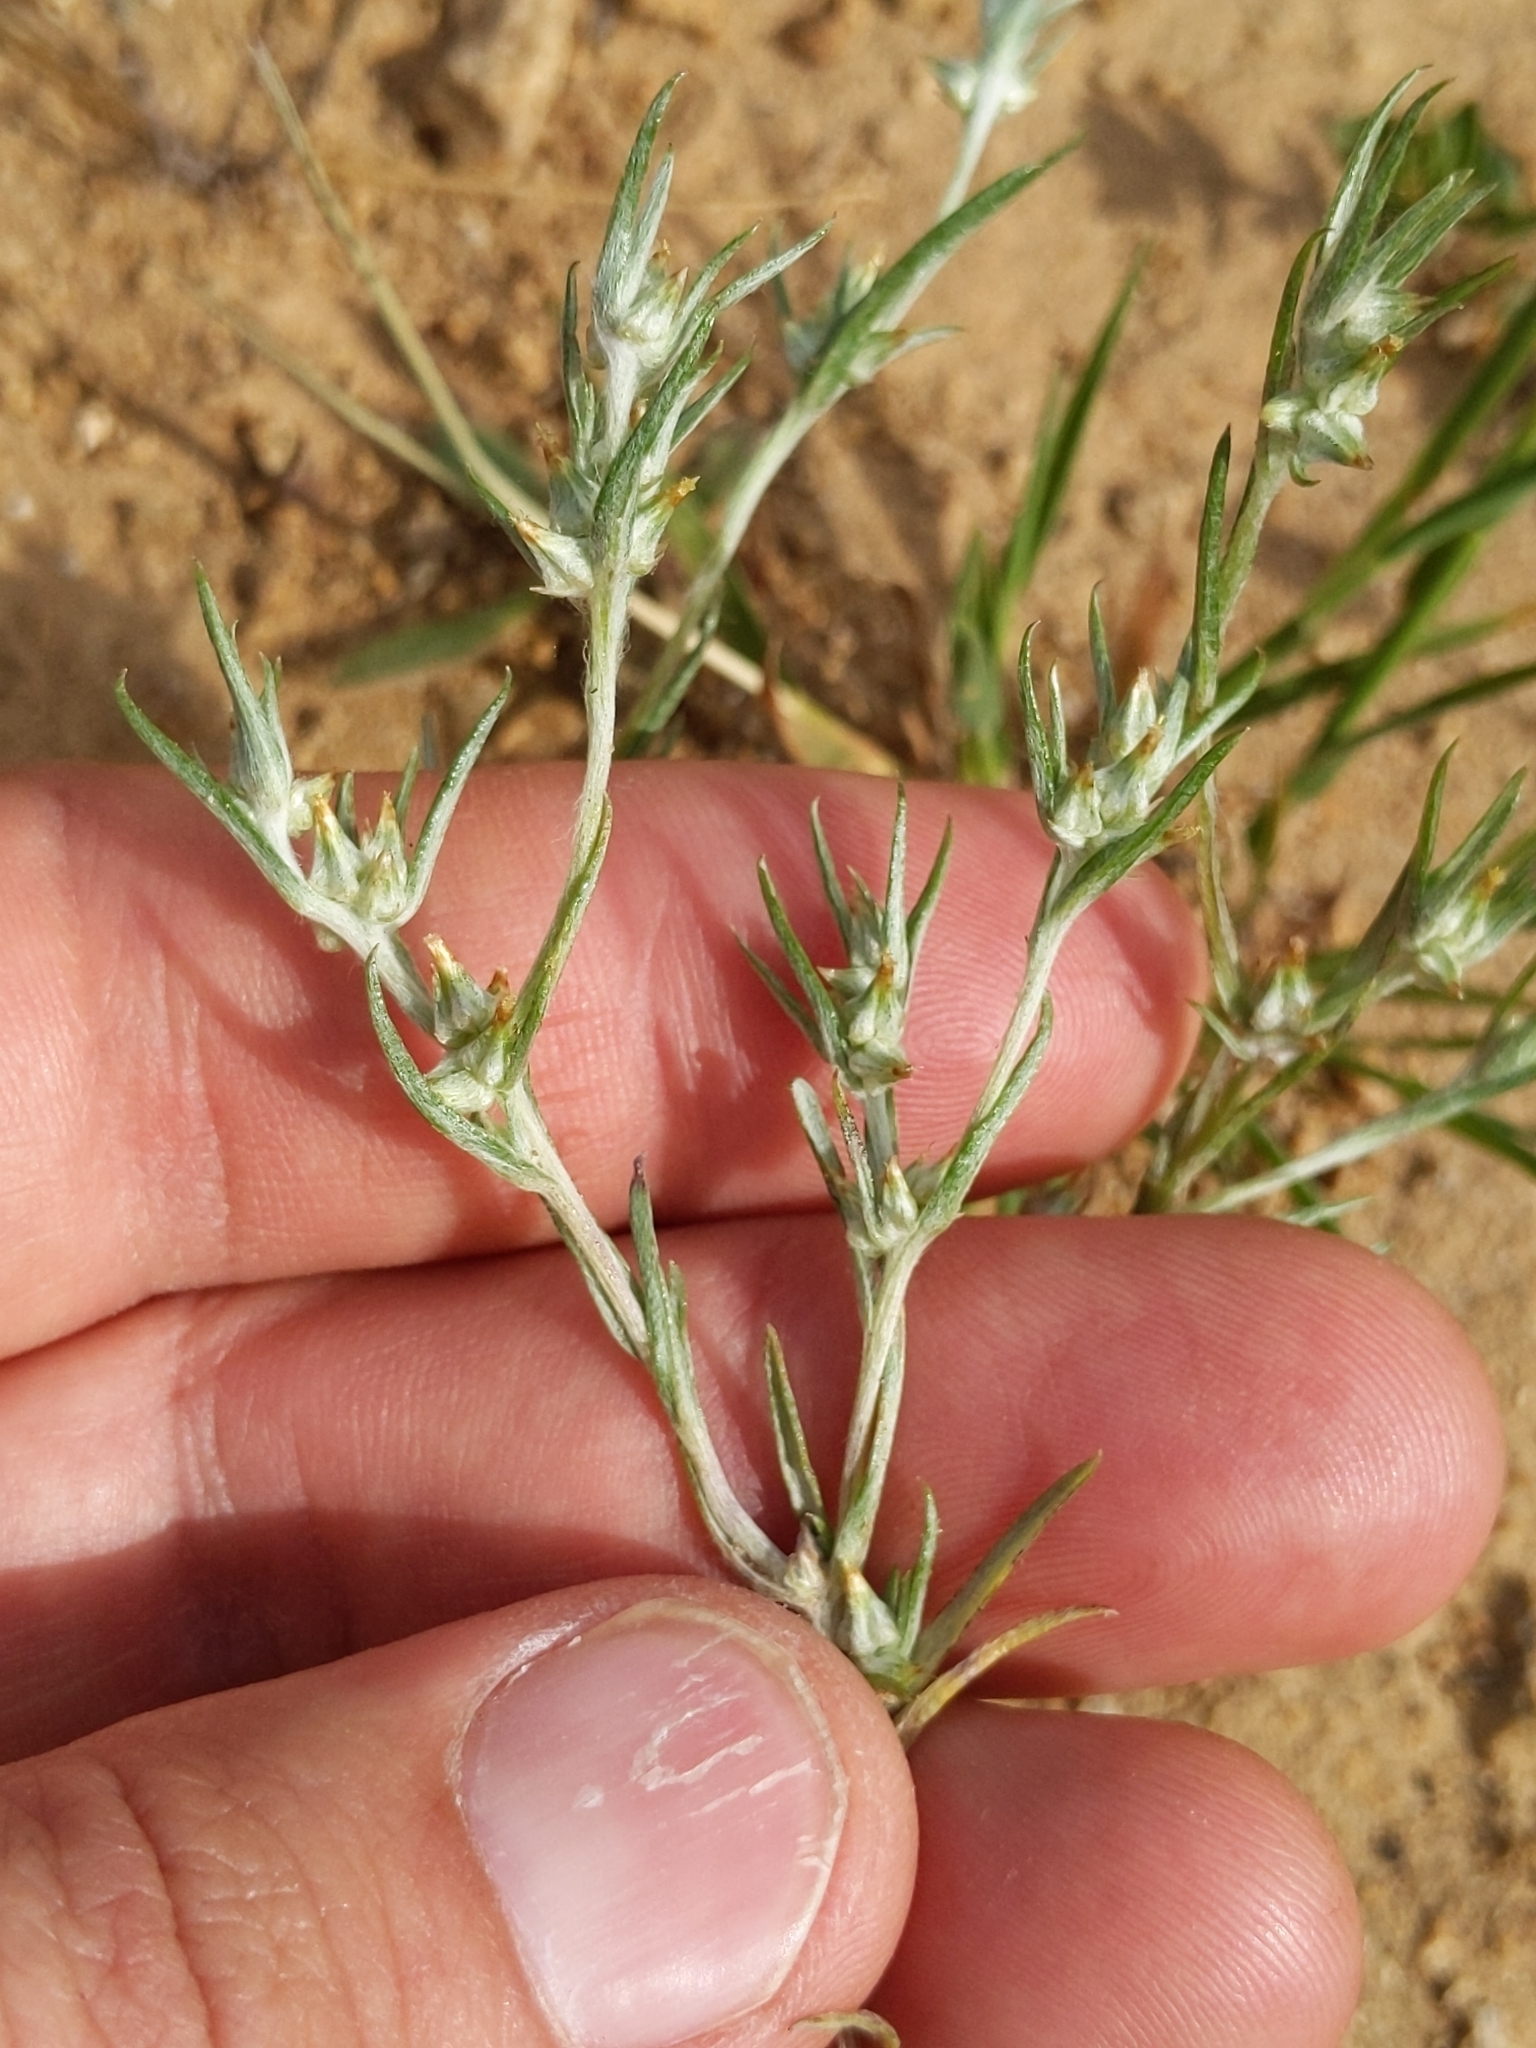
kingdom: Plantae
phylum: Tracheophyta
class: Magnoliopsida
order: Asterales
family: Asteraceae
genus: Logfia
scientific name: Logfia gallica
